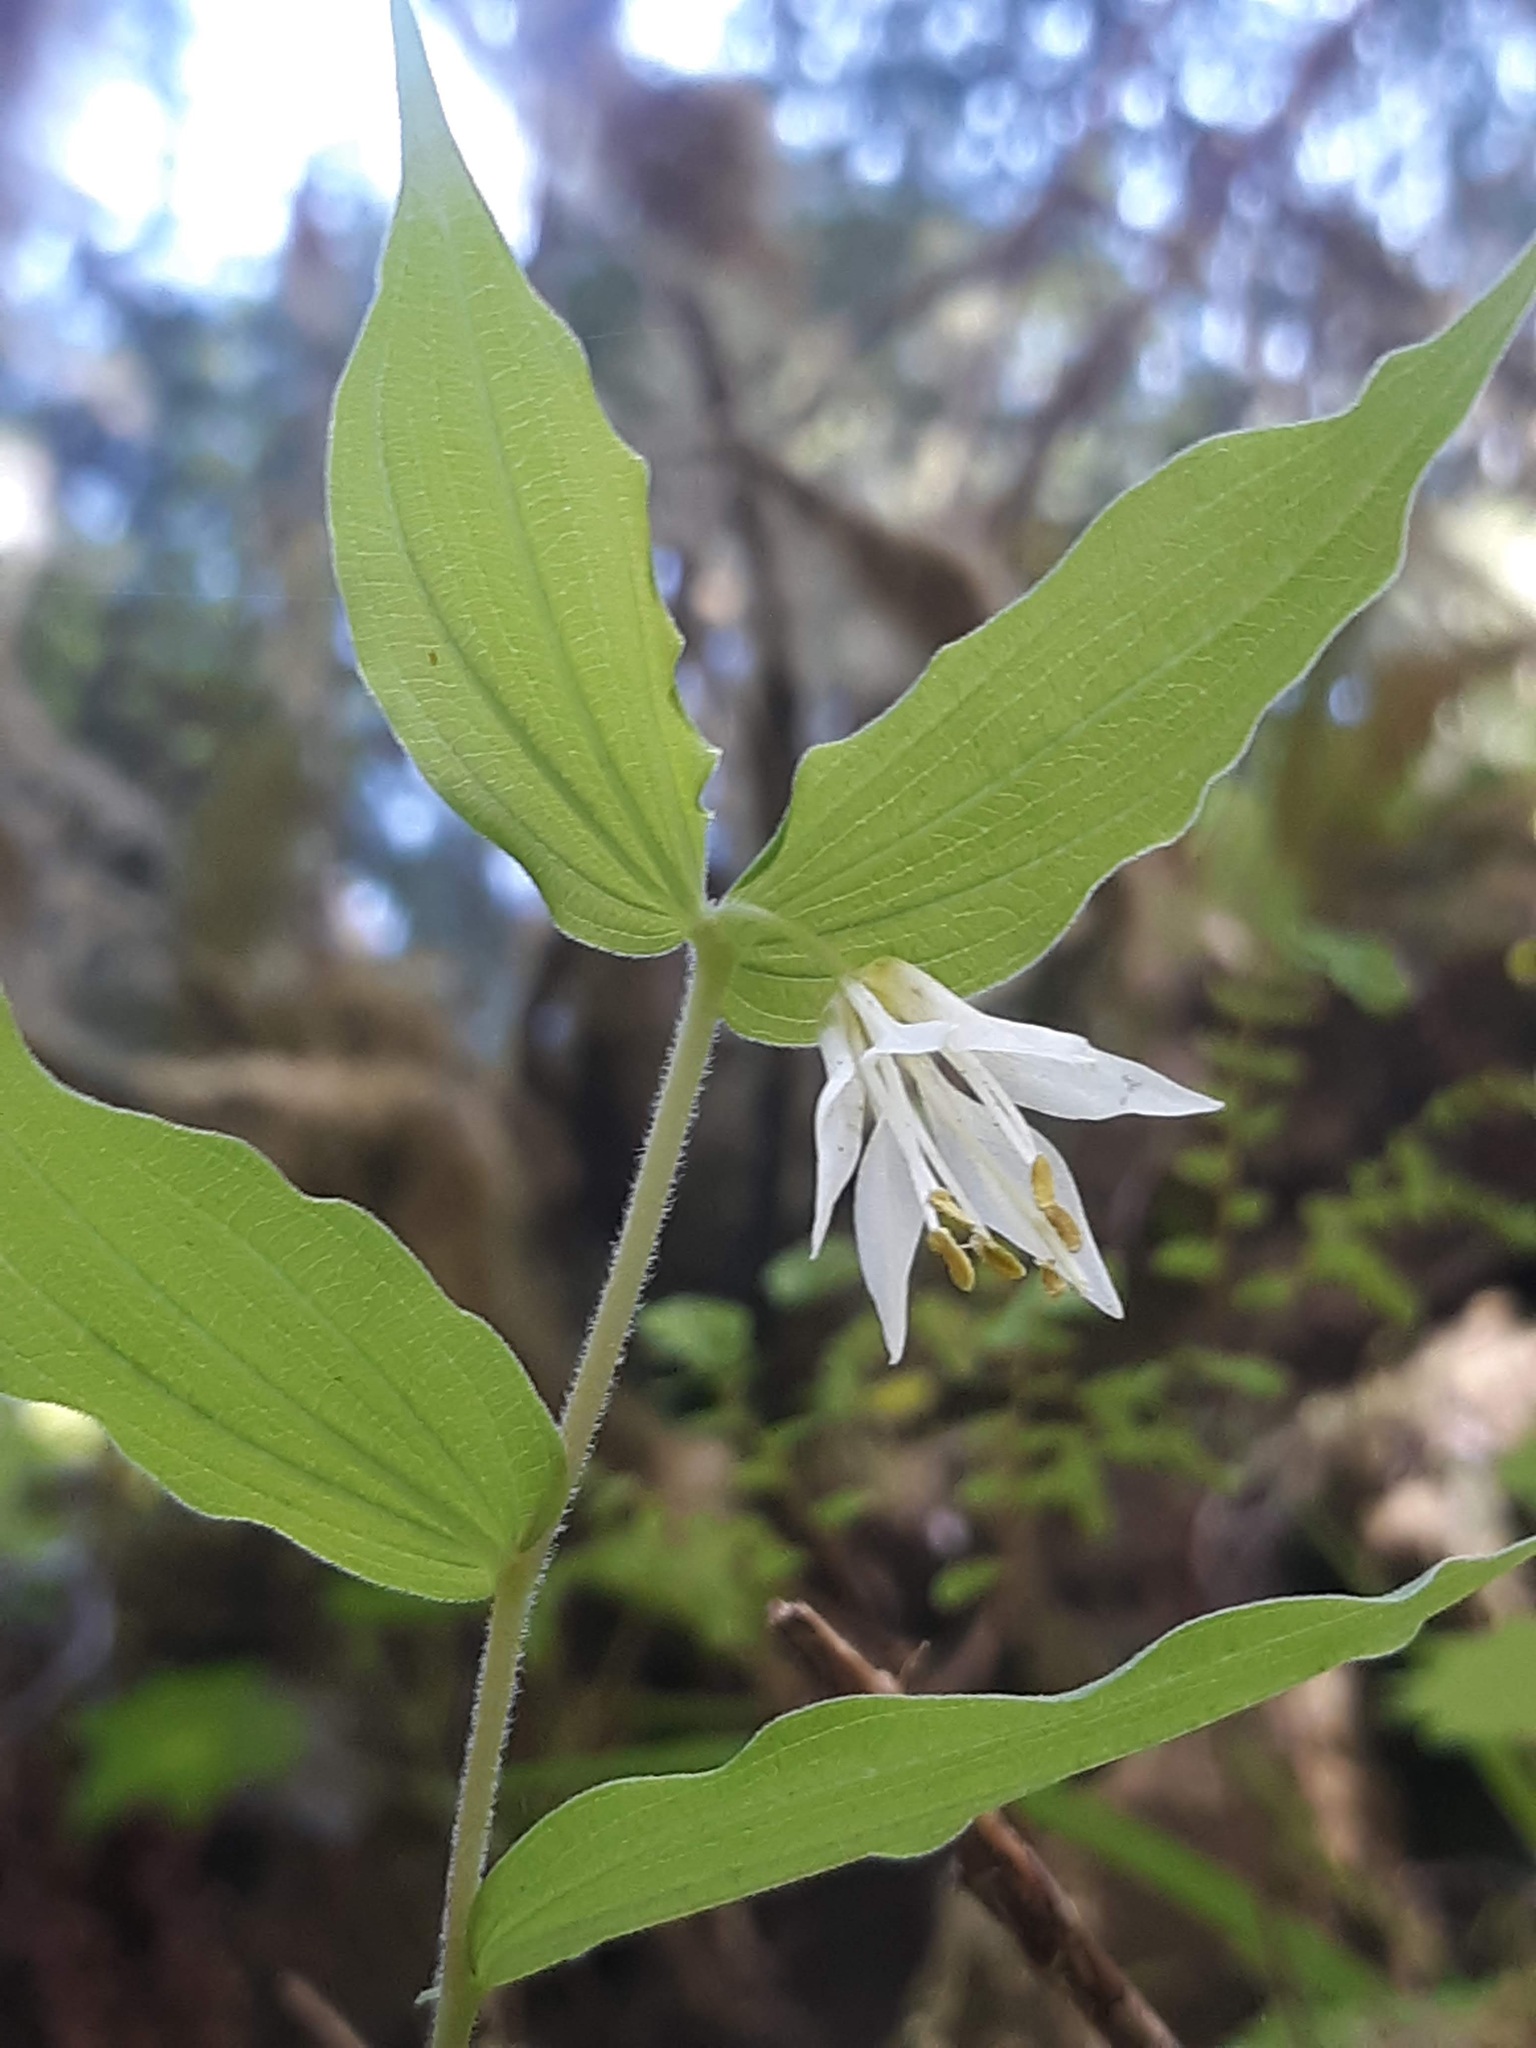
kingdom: Plantae
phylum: Tracheophyta
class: Liliopsida
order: Liliales
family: Liliaceae
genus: Prosartes
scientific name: Prosartes hookeri
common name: Fairy-bells
